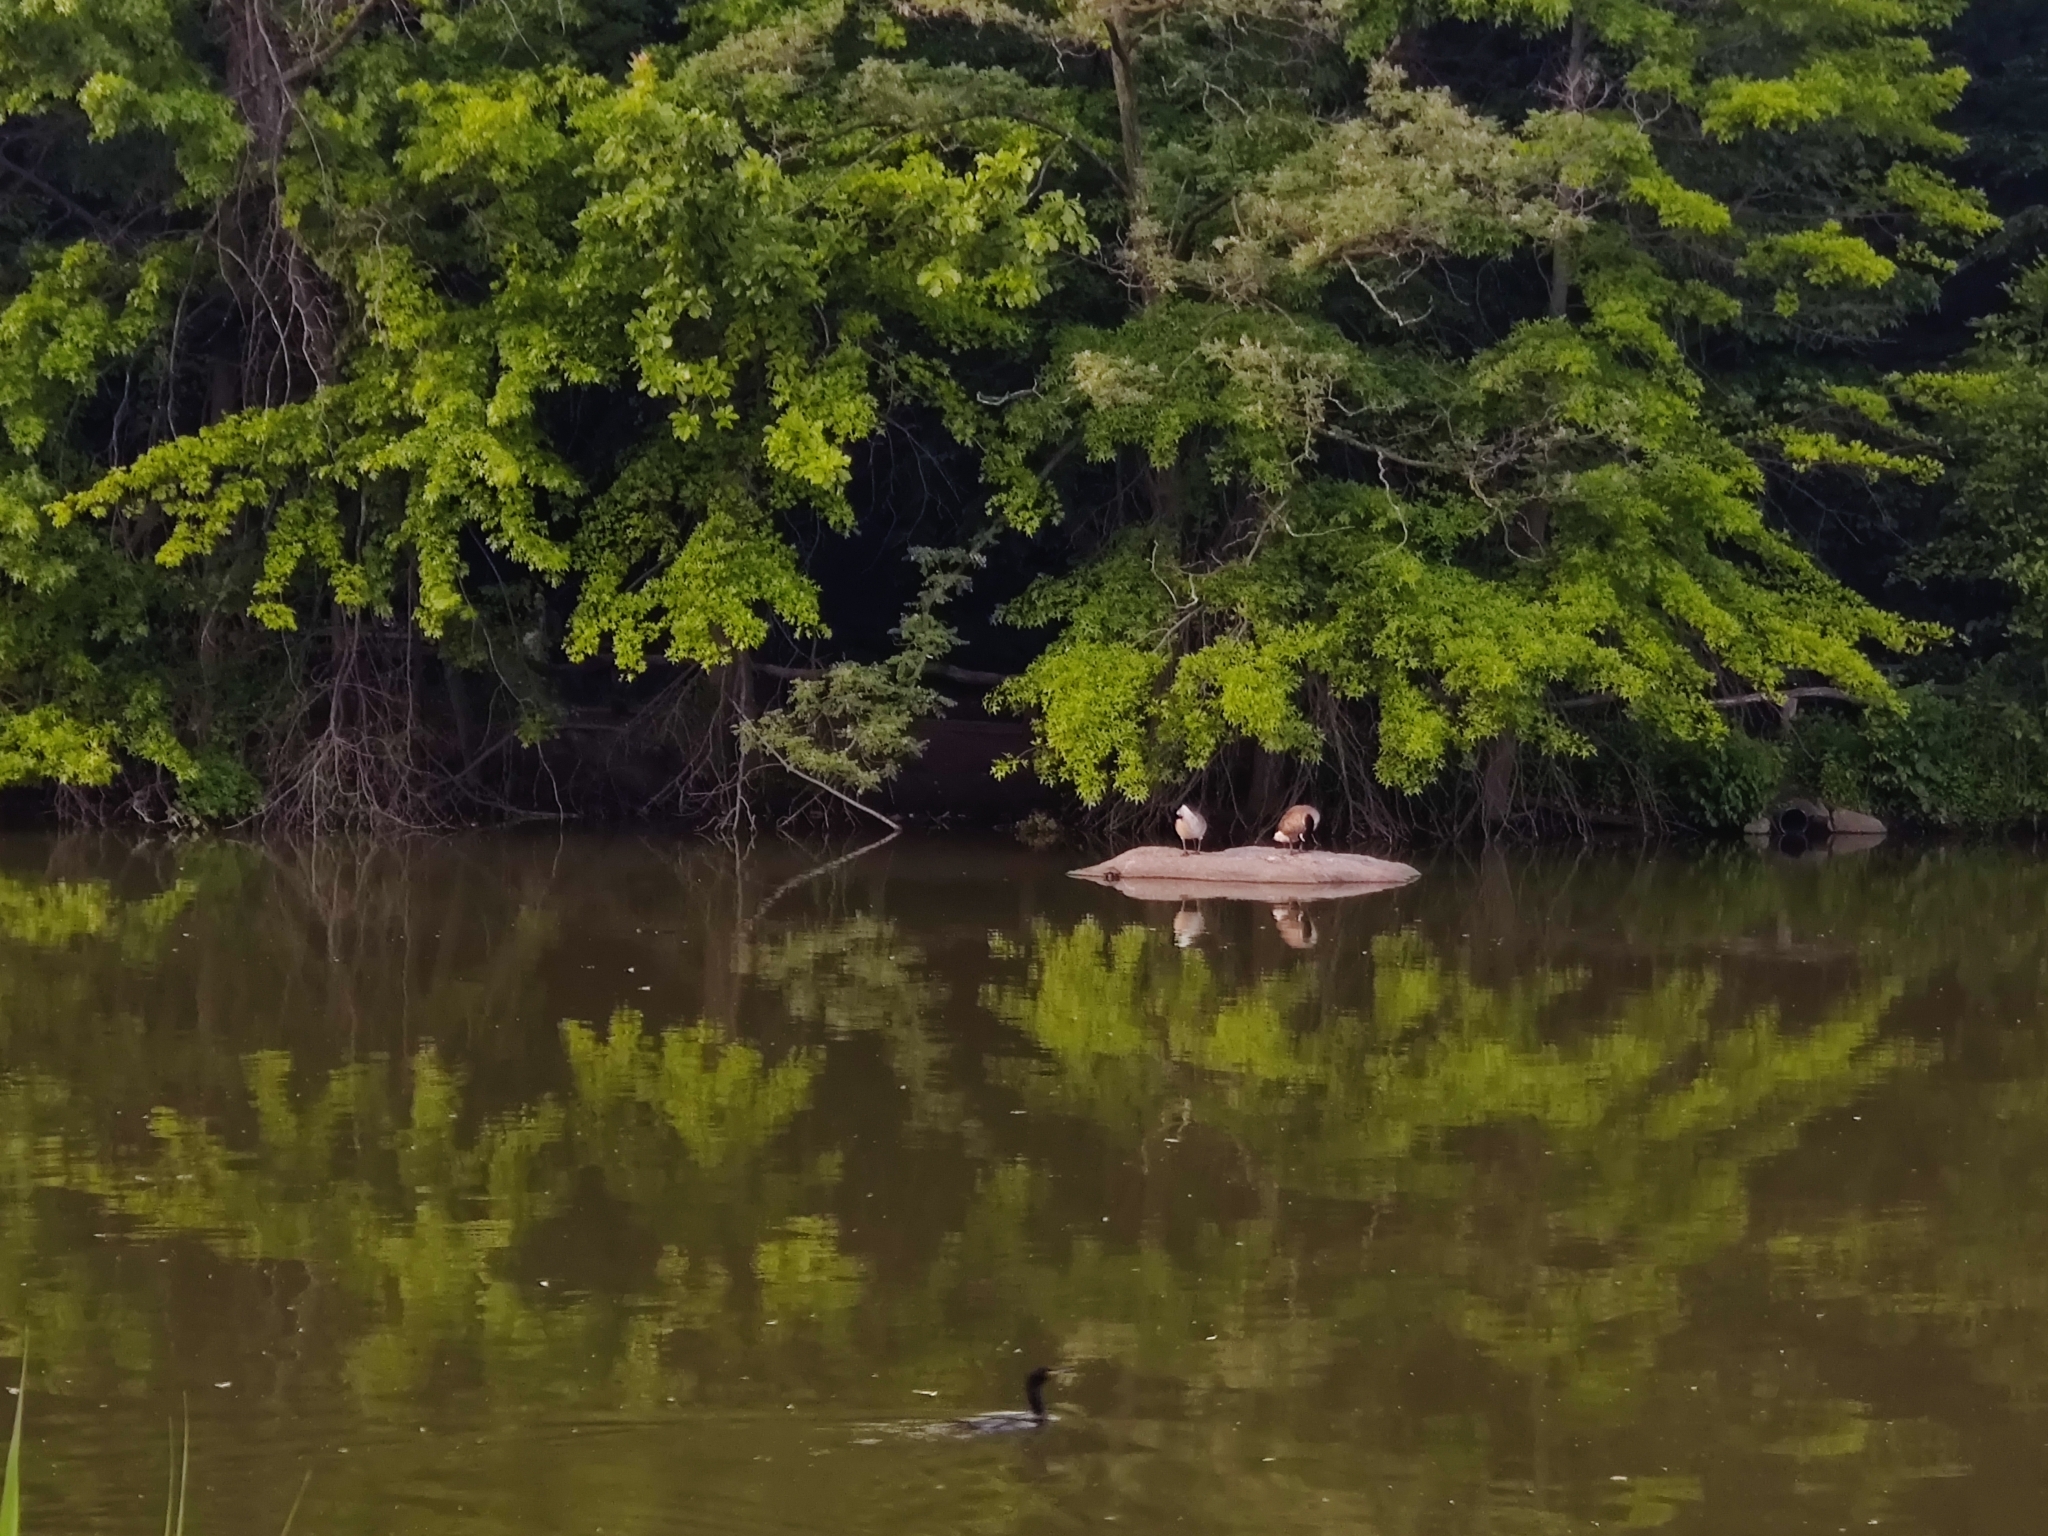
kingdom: Animalia
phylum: Chordata
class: Aves
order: Anseriformes
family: Anatidae
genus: Branta
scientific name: Branta canadensis
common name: Canada goose
